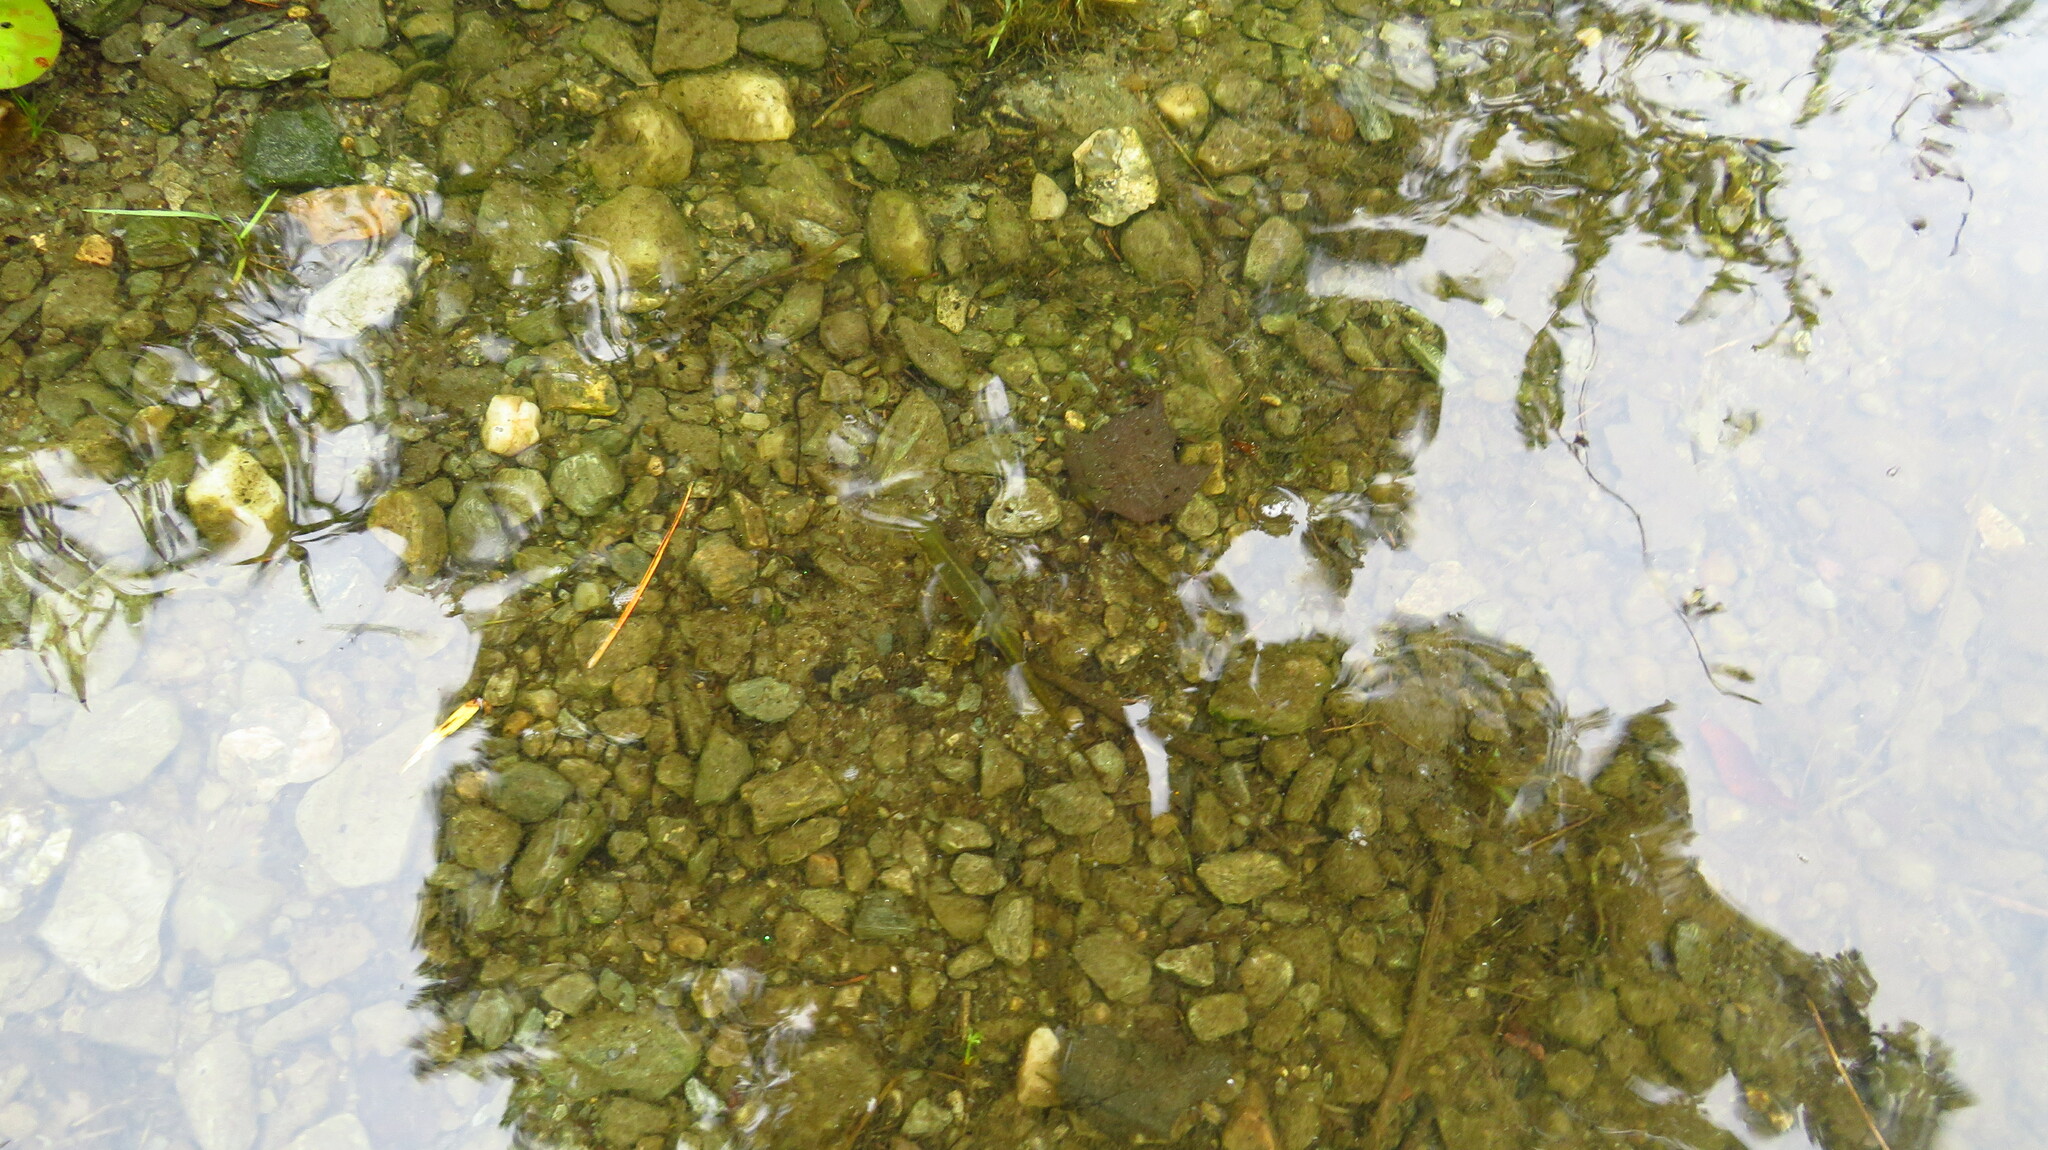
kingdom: Animalia
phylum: Chordata
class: Amphibia
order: Caudata
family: Salamandridae
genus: Notophthalmus
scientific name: Notophthalmus viridescens
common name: Eastern newt
